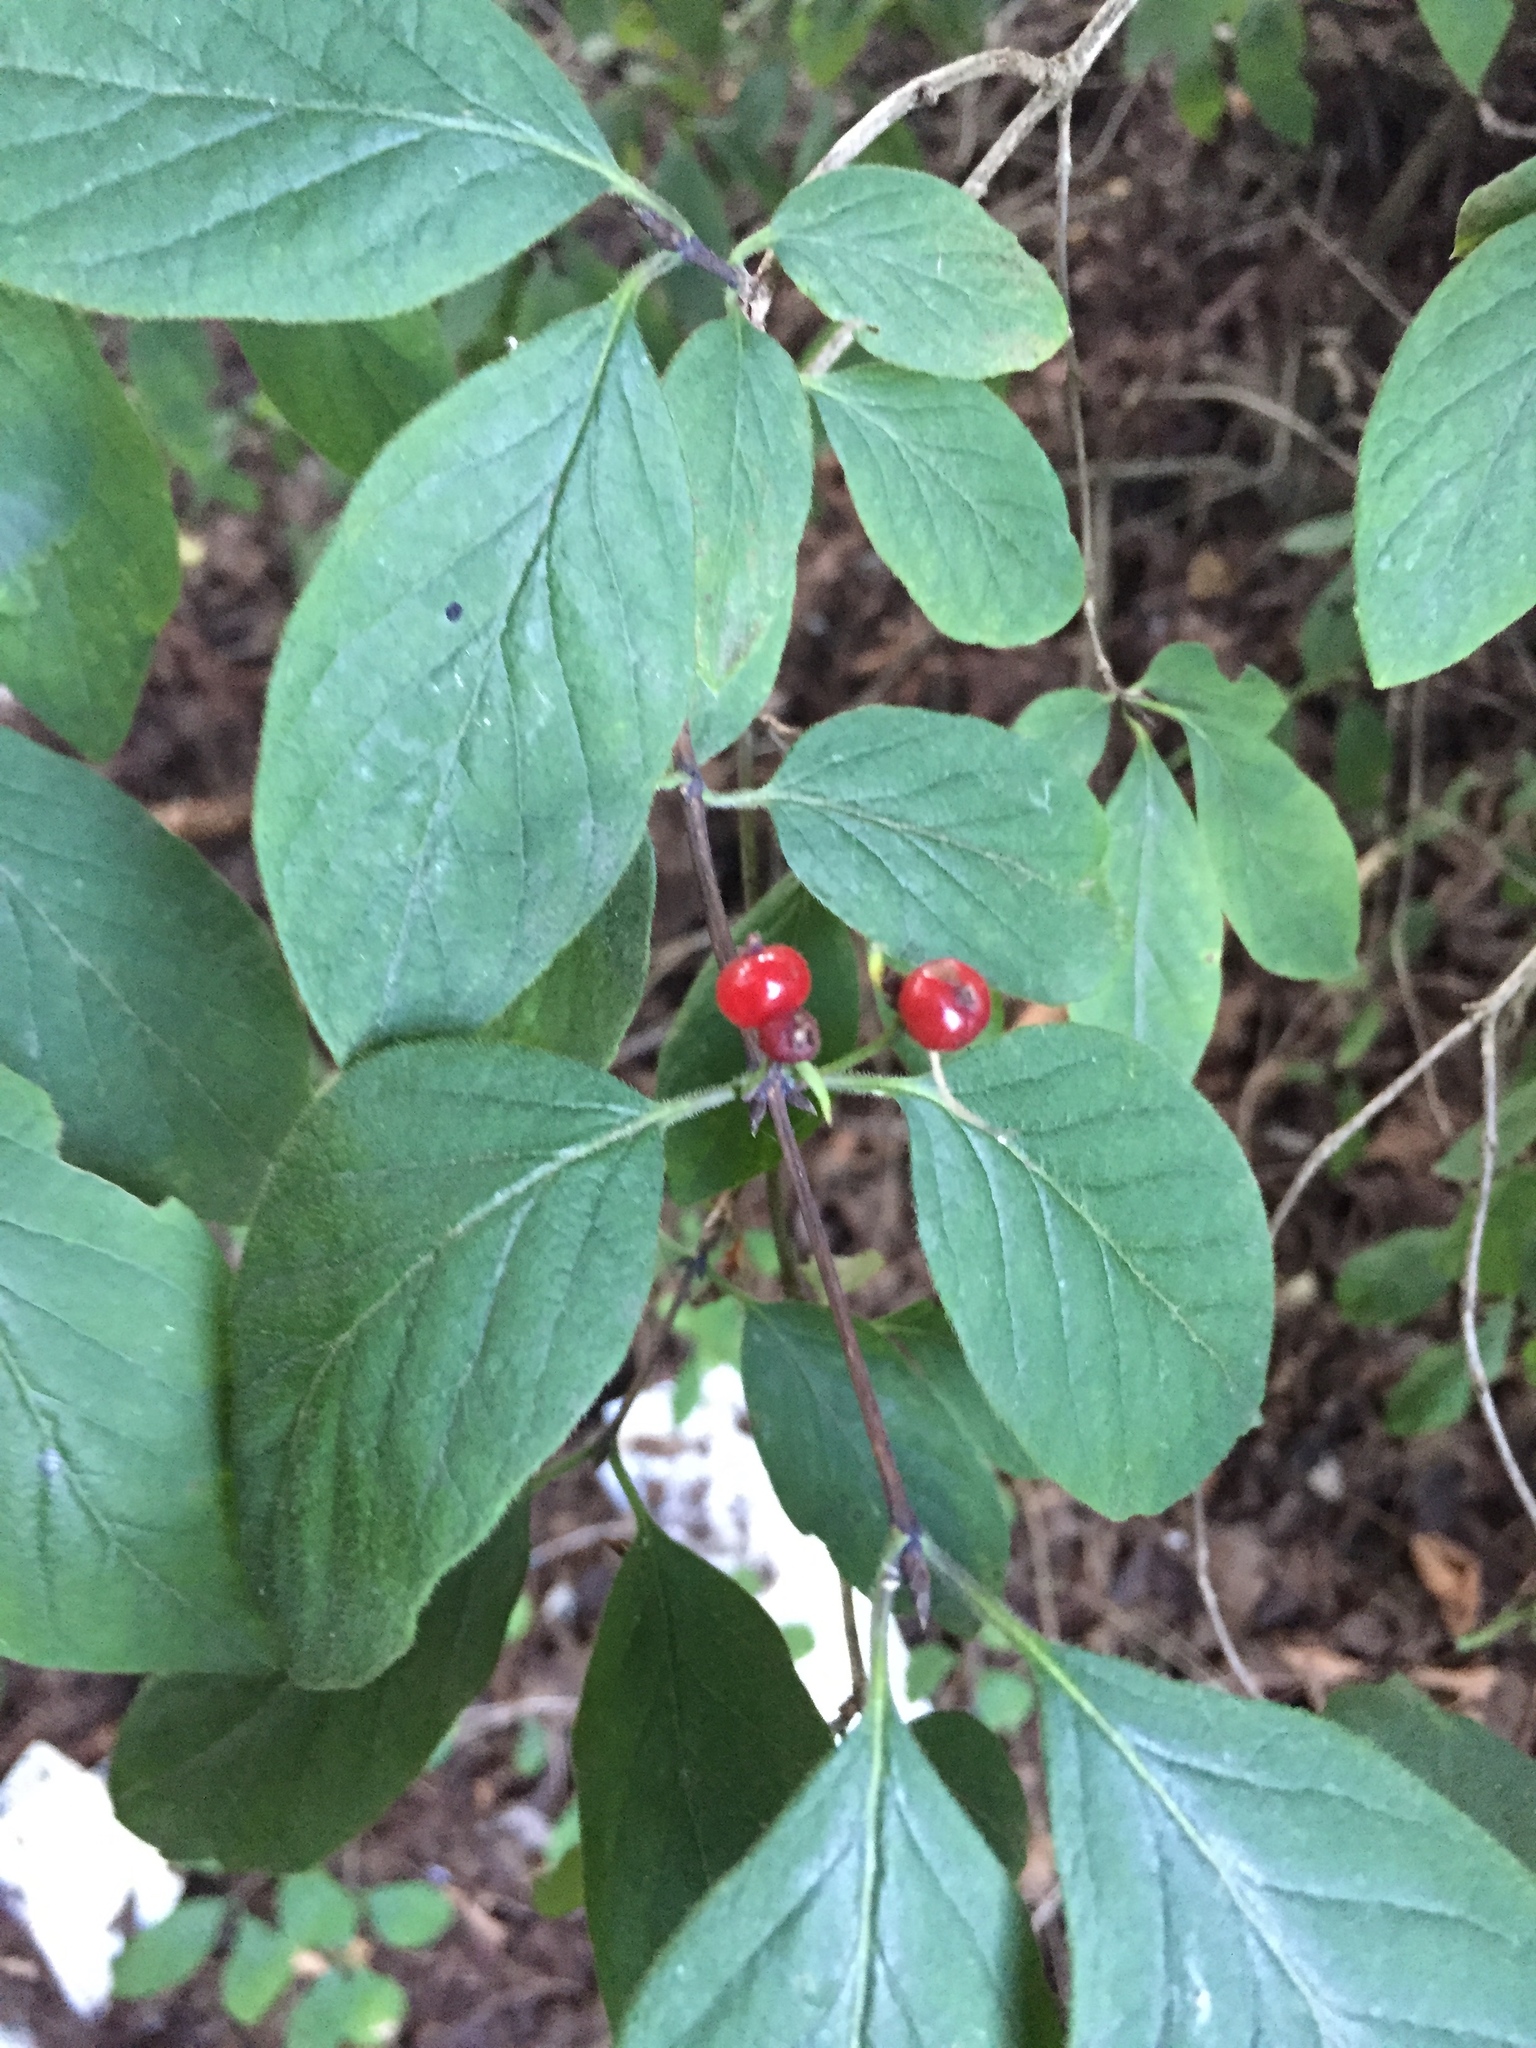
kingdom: Plantae
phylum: Tracheophyta
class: Magnoliopsida
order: Dipsacales
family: Caprifoliaceae
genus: Lonicera
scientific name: Lonicera xylosteum
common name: Fly honeysuckle
